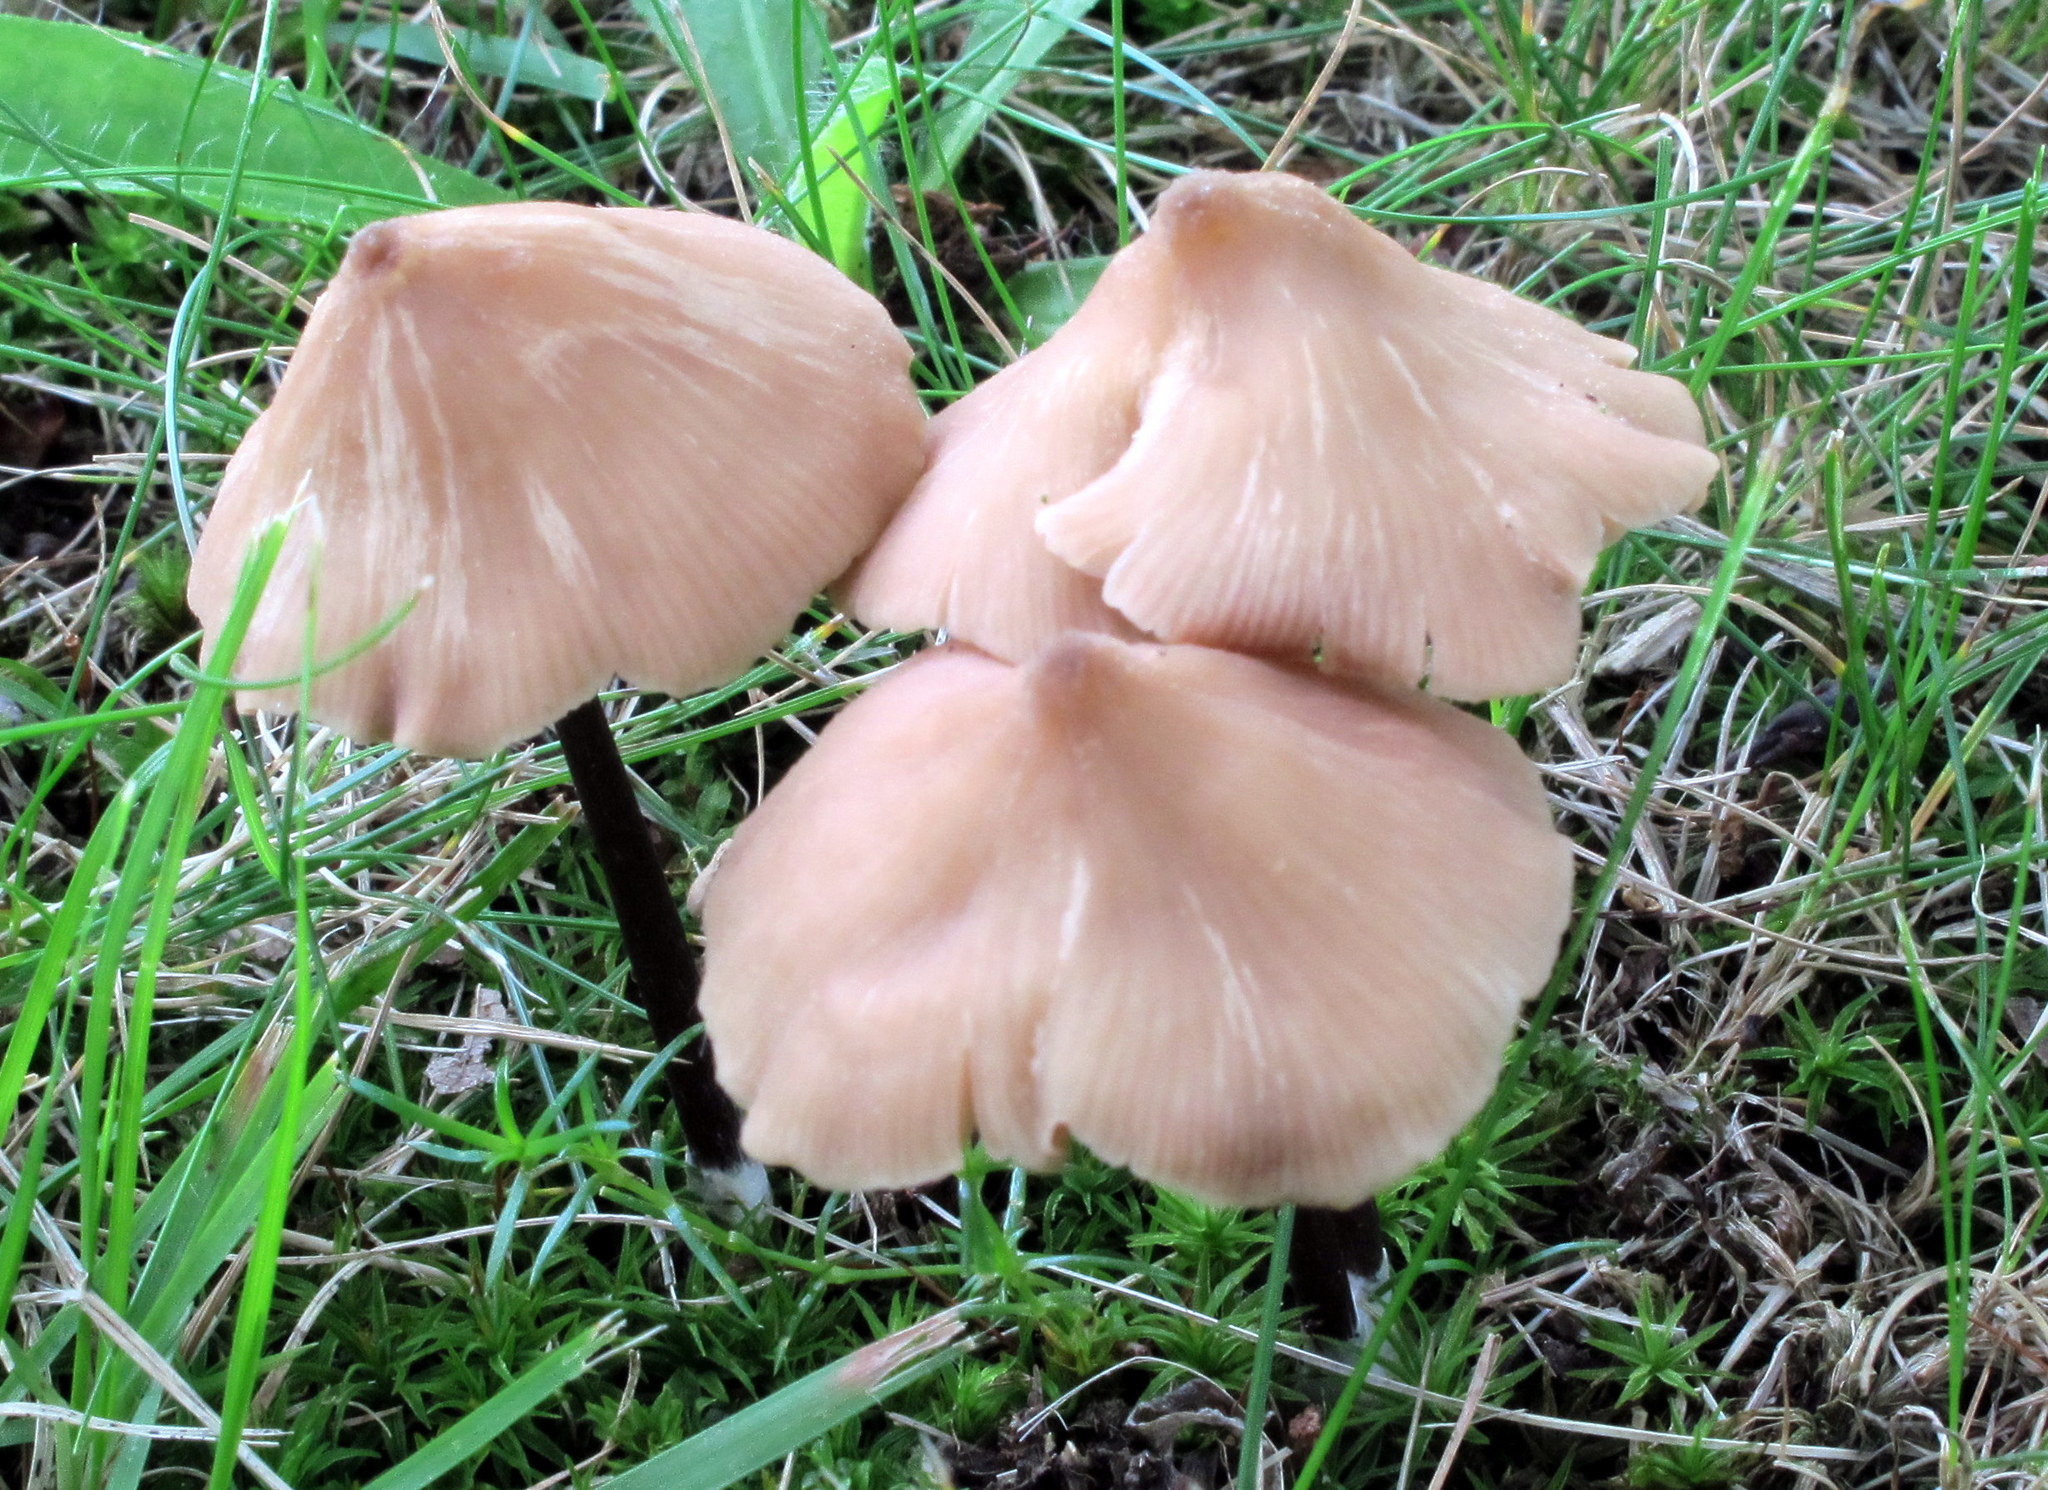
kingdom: Fungi
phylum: Basidiomycota
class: Agaricomycetes
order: Agaricales
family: Entolomataceae
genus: Entoloma
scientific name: Entoloma conicum
